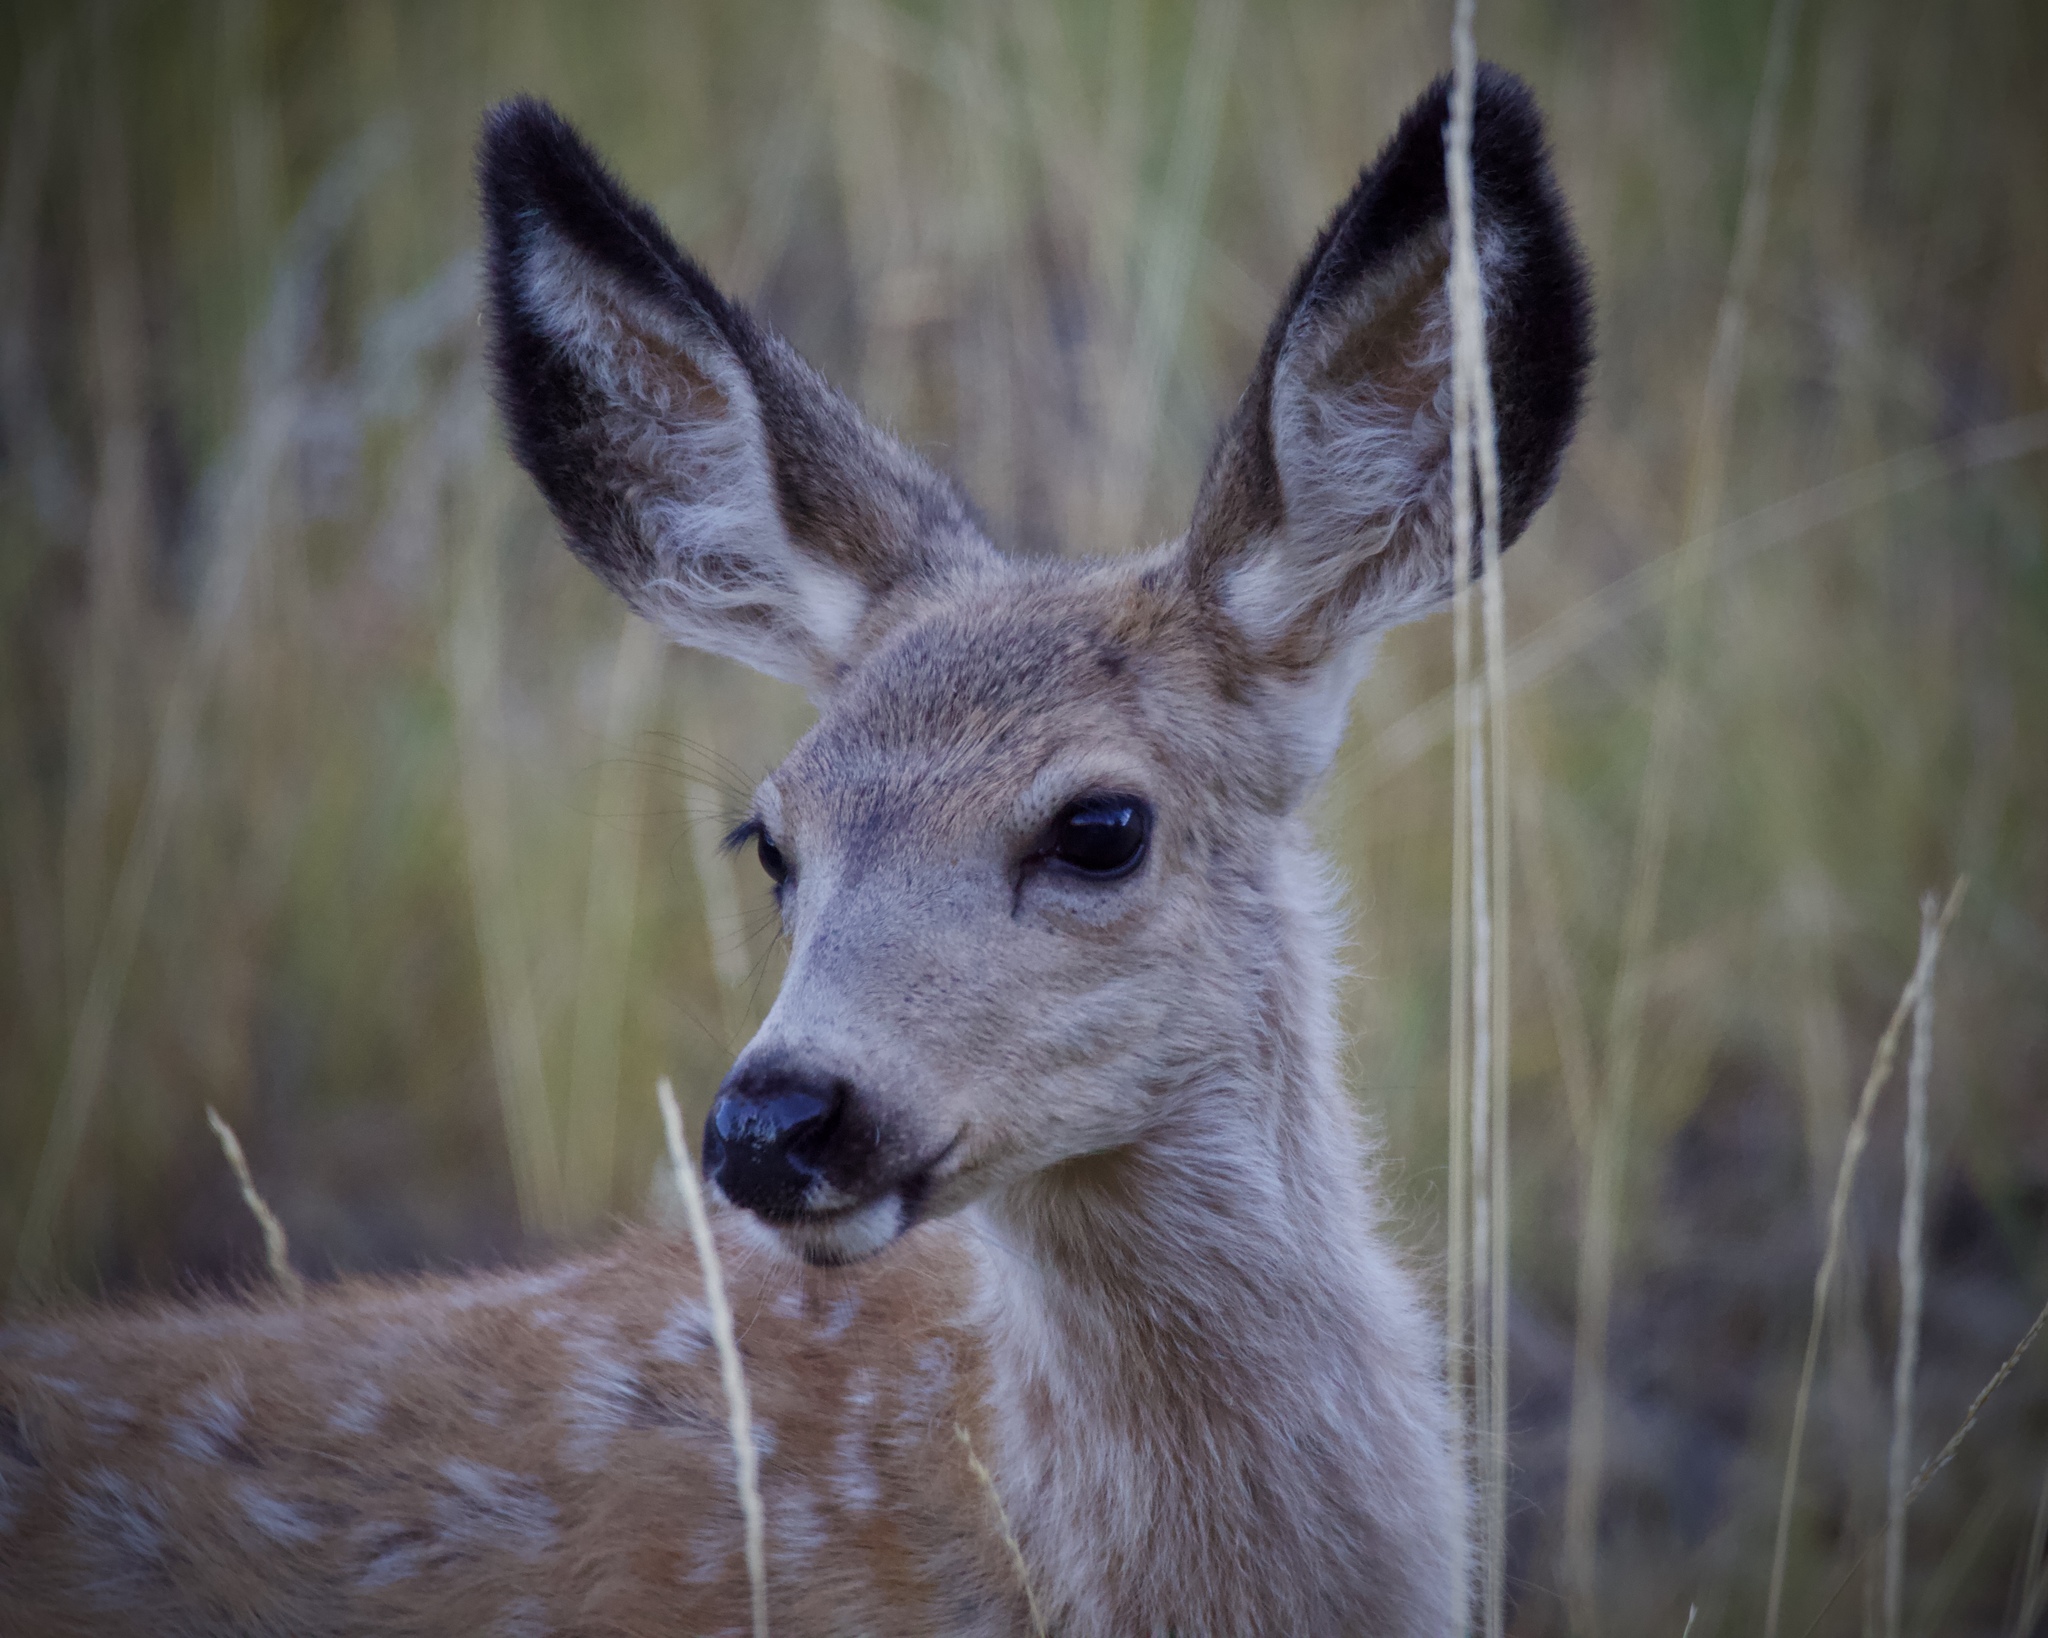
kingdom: Animalia
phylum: Chordata
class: Mammalia
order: Artiodactyla
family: Cervidae
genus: Odocoileus
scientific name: Odocoileus hemionus
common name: Mule deer
